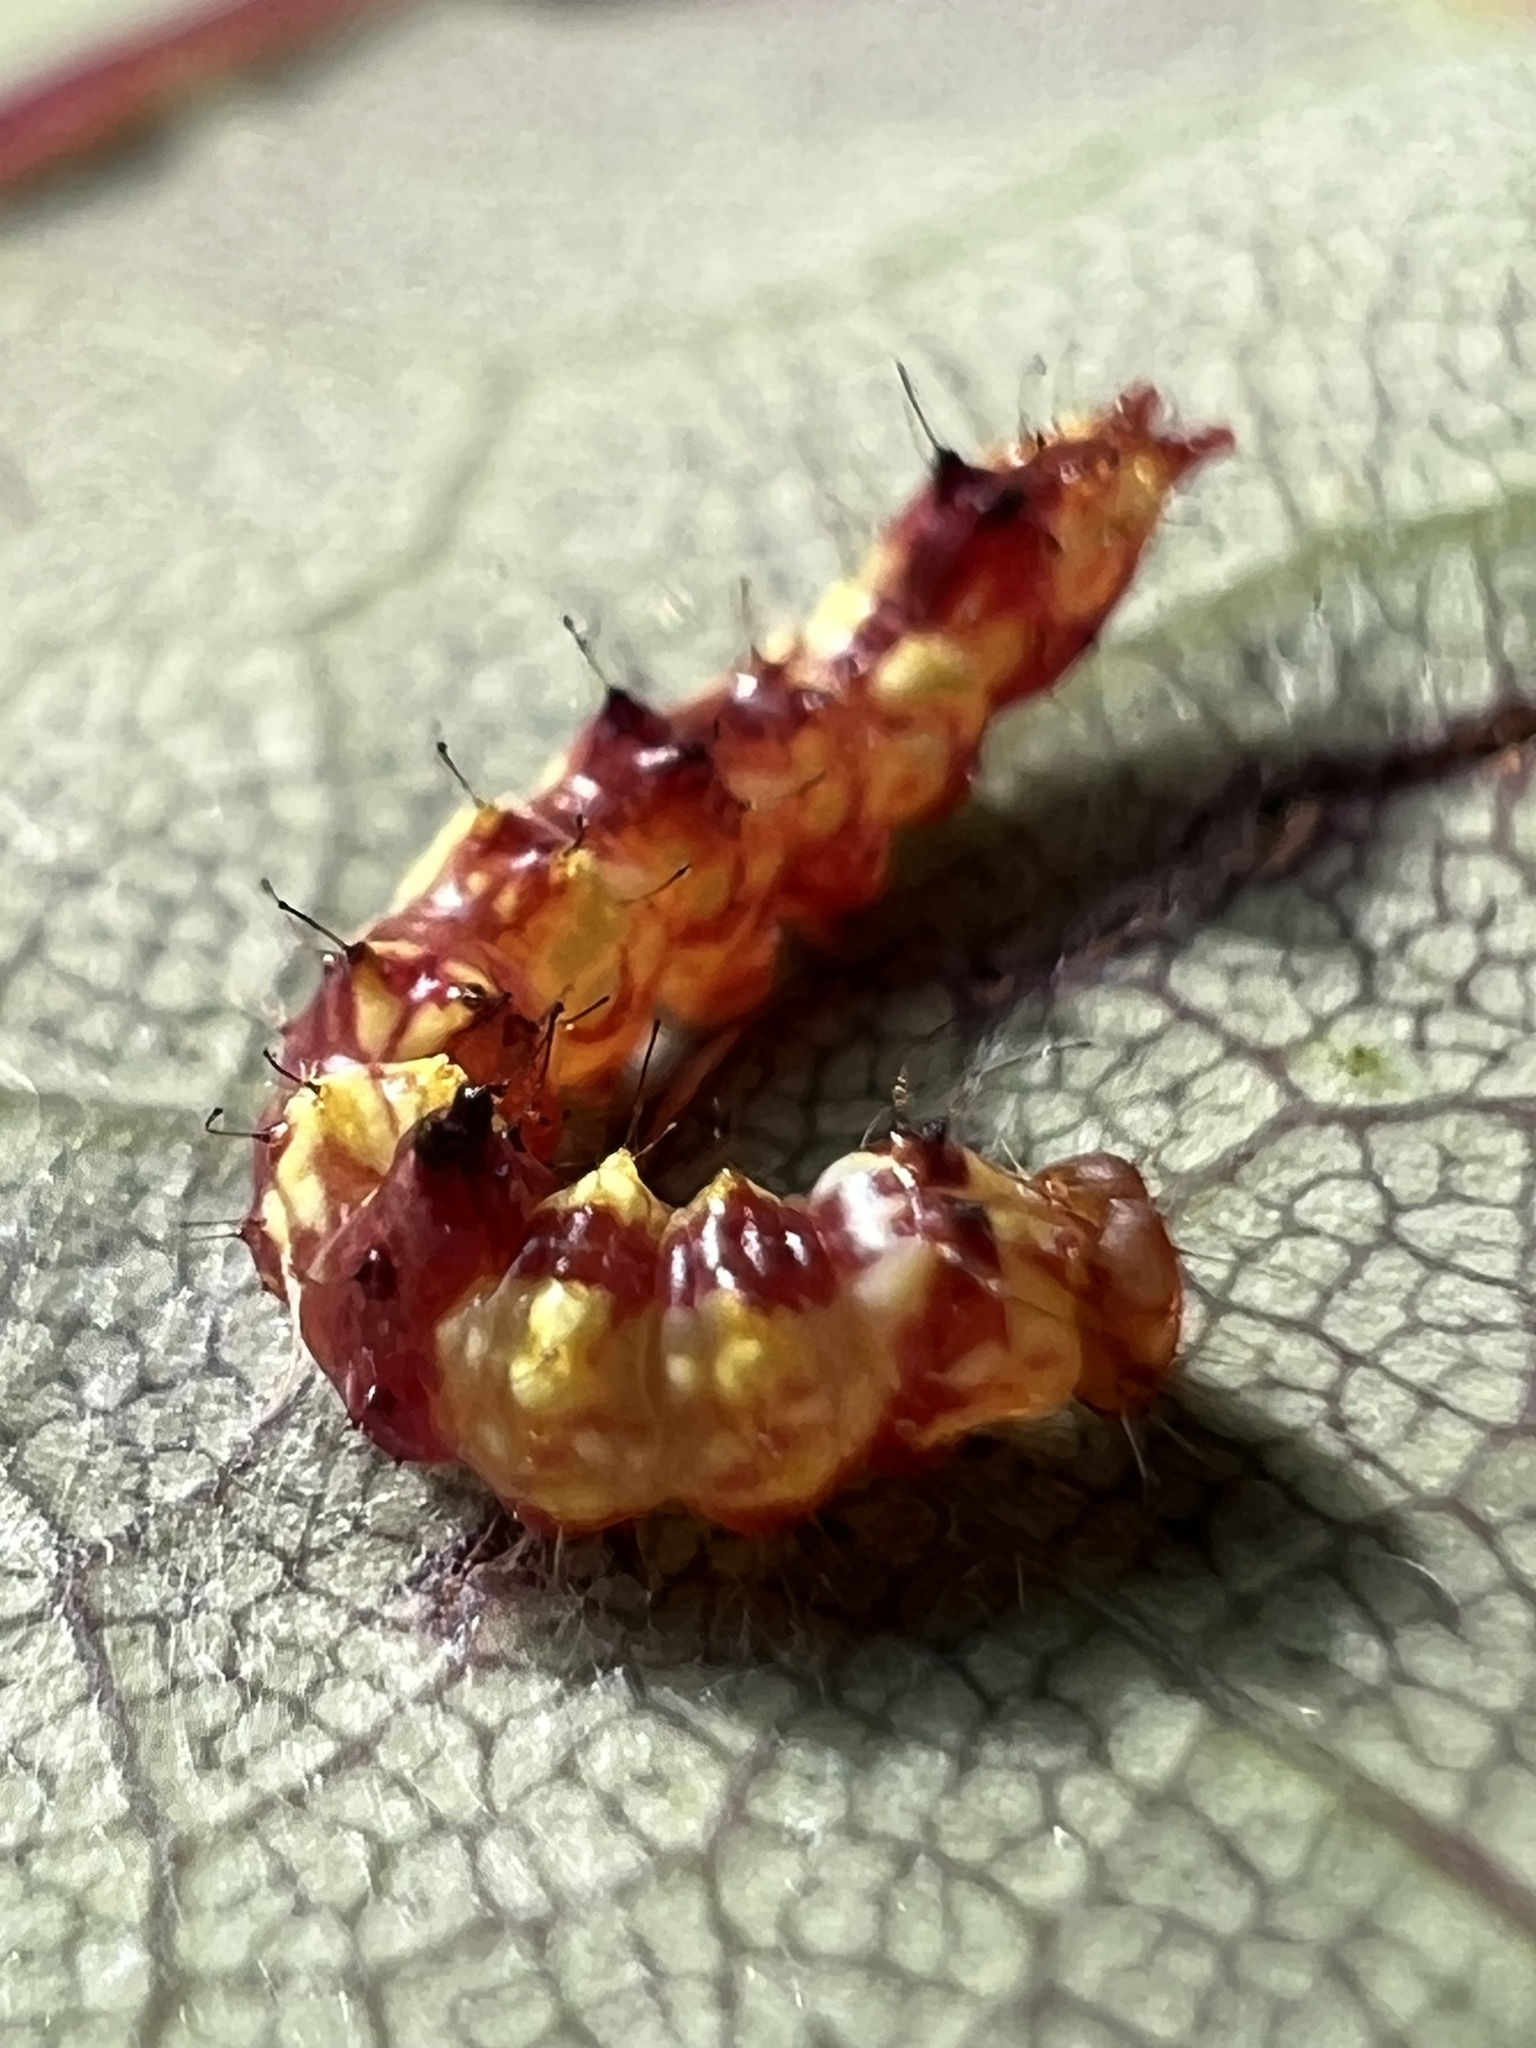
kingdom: Animalia
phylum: Arthropoda
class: Insecta
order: Lepidoptera
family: Notodontidae
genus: Schizura
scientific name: Schizura ipomaeae
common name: Morning-glory prominent
